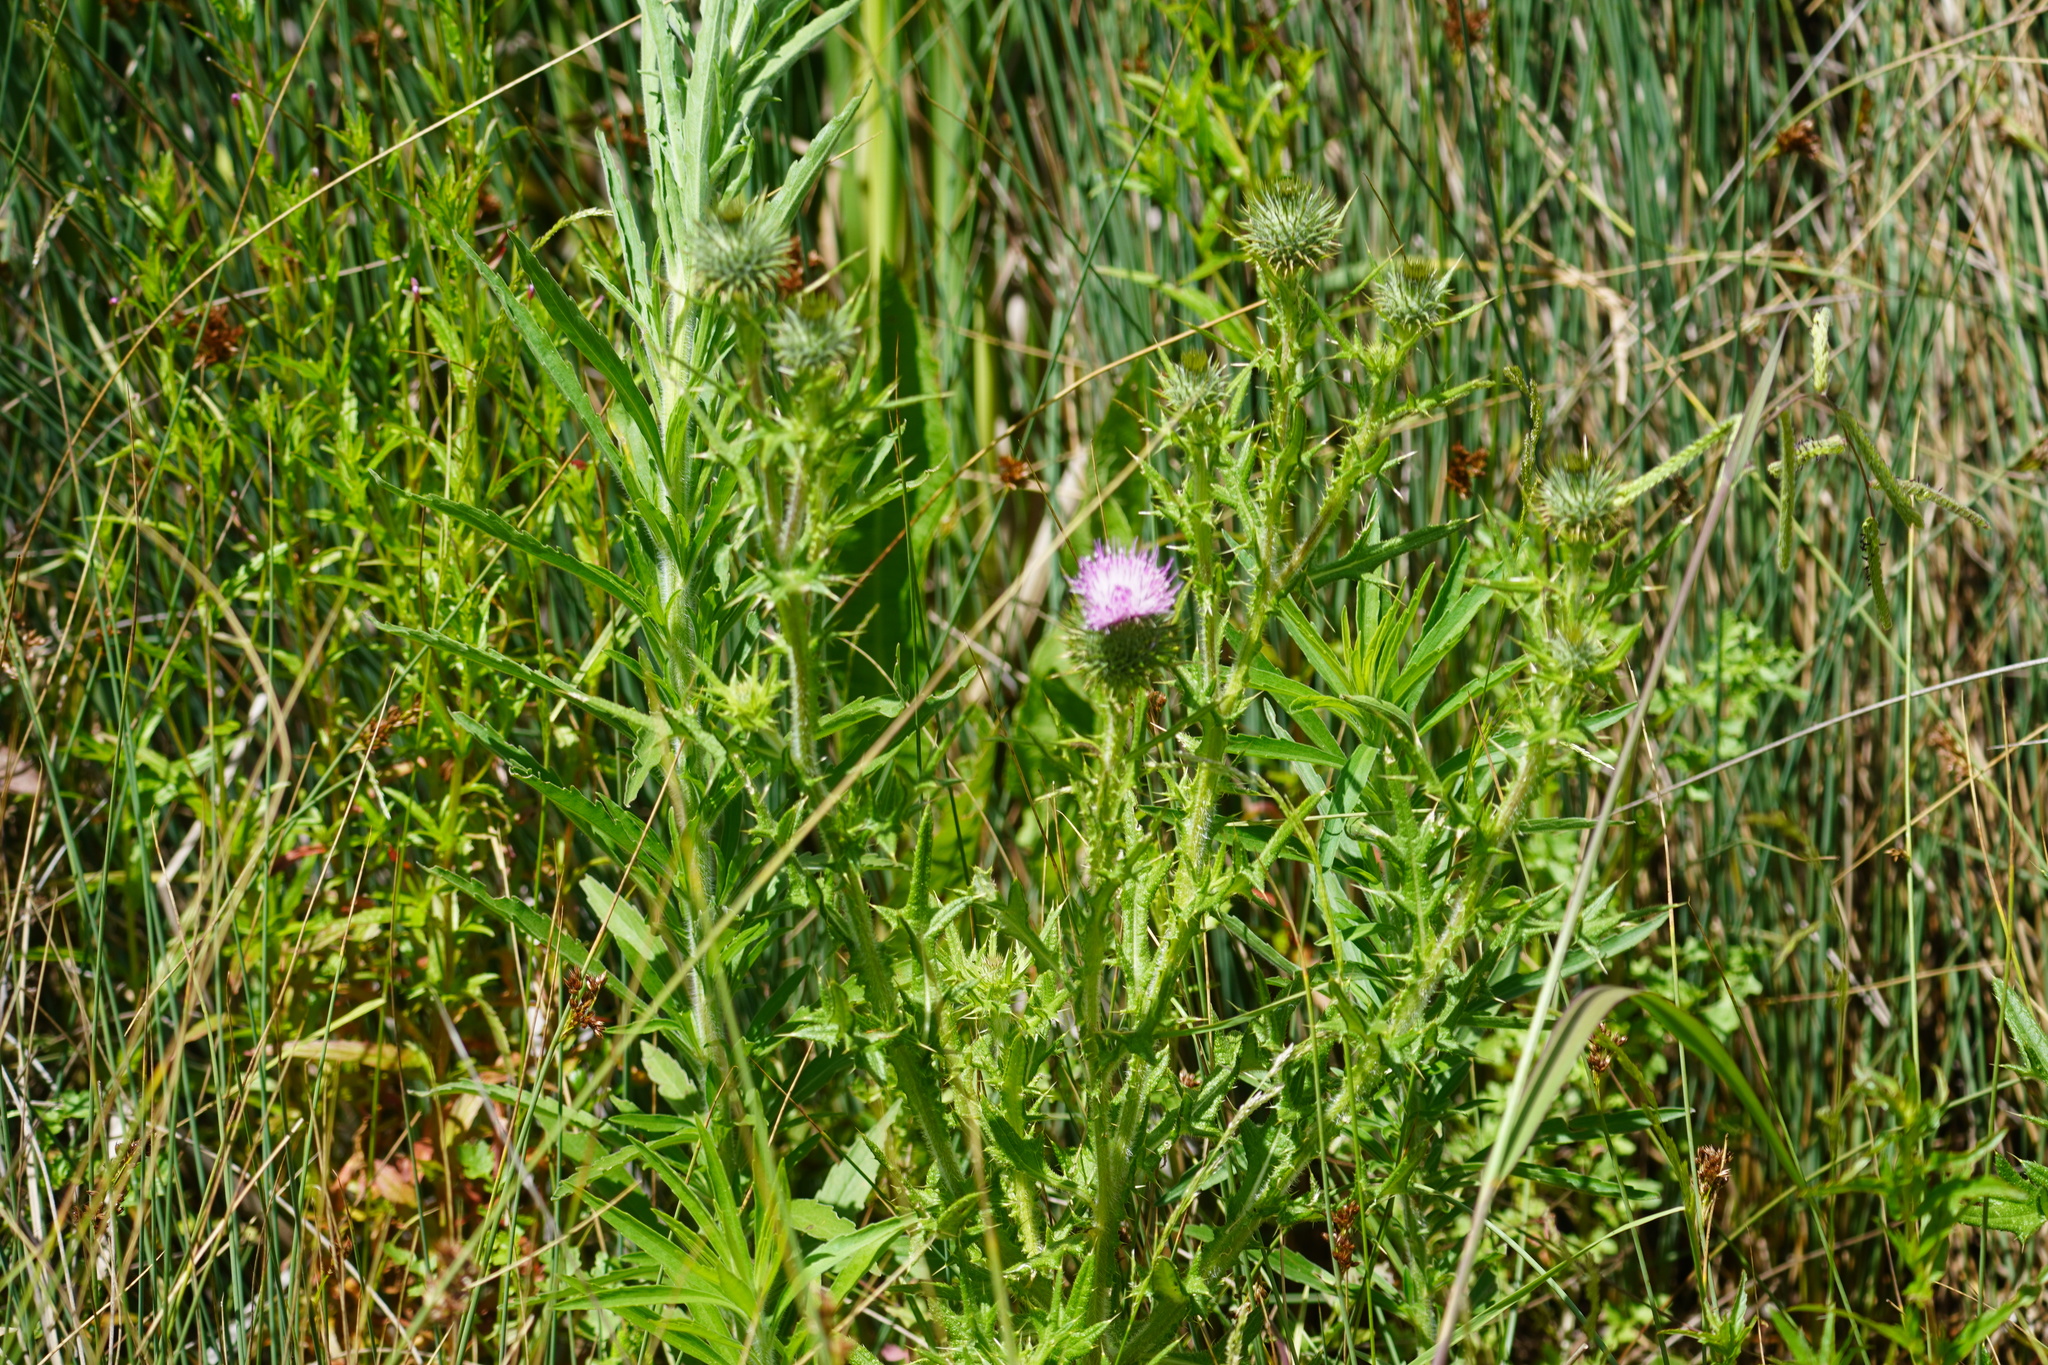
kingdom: Plantae
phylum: Tracheophyta
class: Magnoliopsida
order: Asterales
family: Asteraceae
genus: Cirsium
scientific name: Cirsium vulgare
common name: Bull thistle
